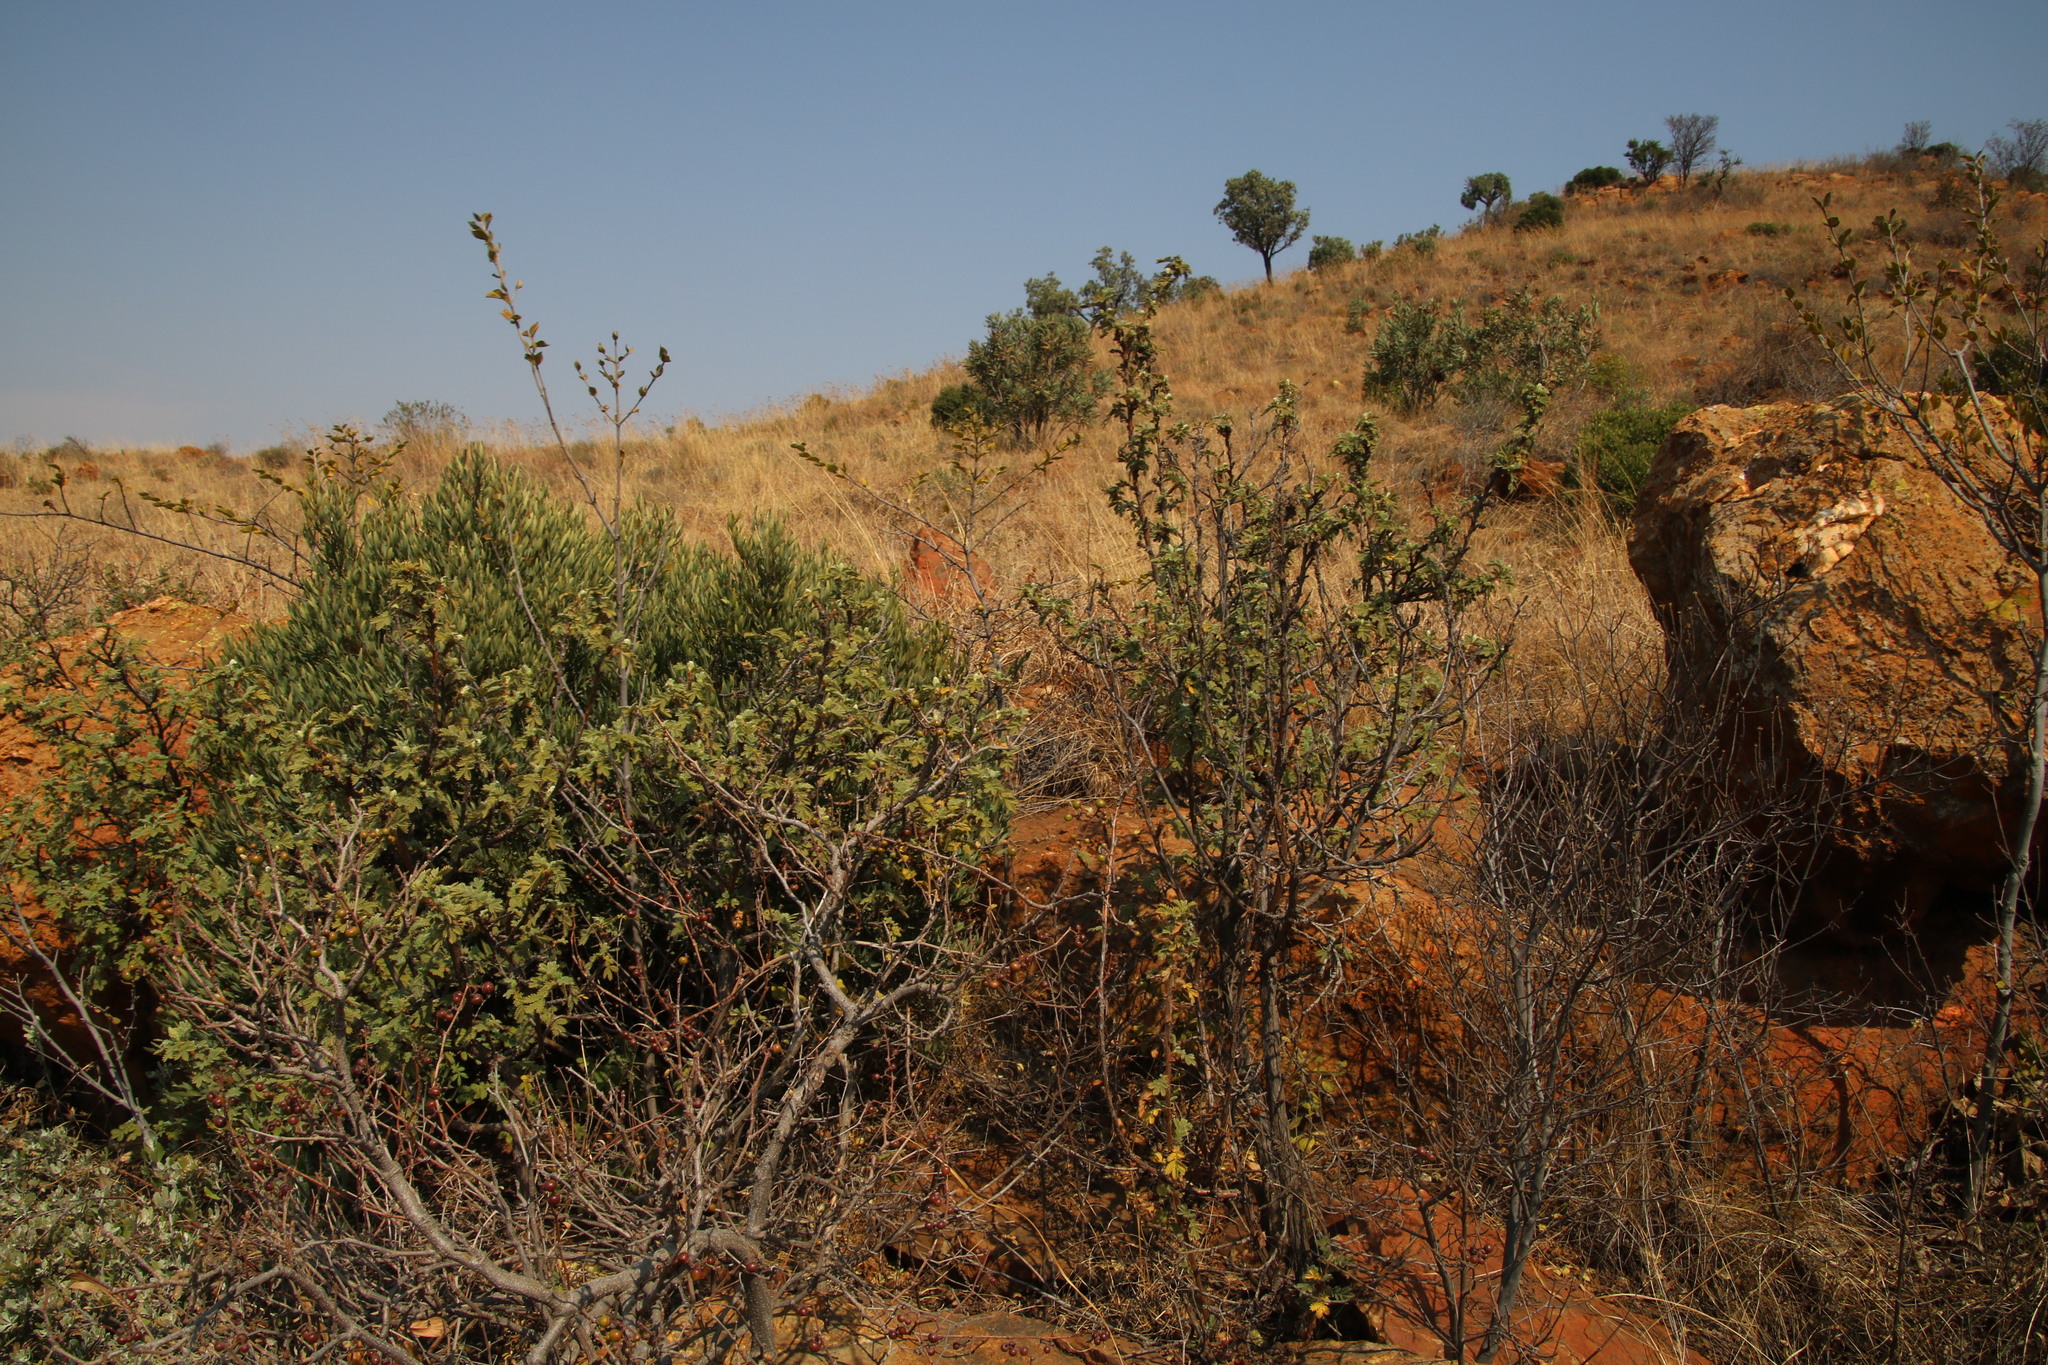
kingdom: Plantae
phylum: Tracheophyta
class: Magnoliopsida
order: Rosales
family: Rosaceae
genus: Leucosidea
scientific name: Leucosidea sericea
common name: Oldwood
